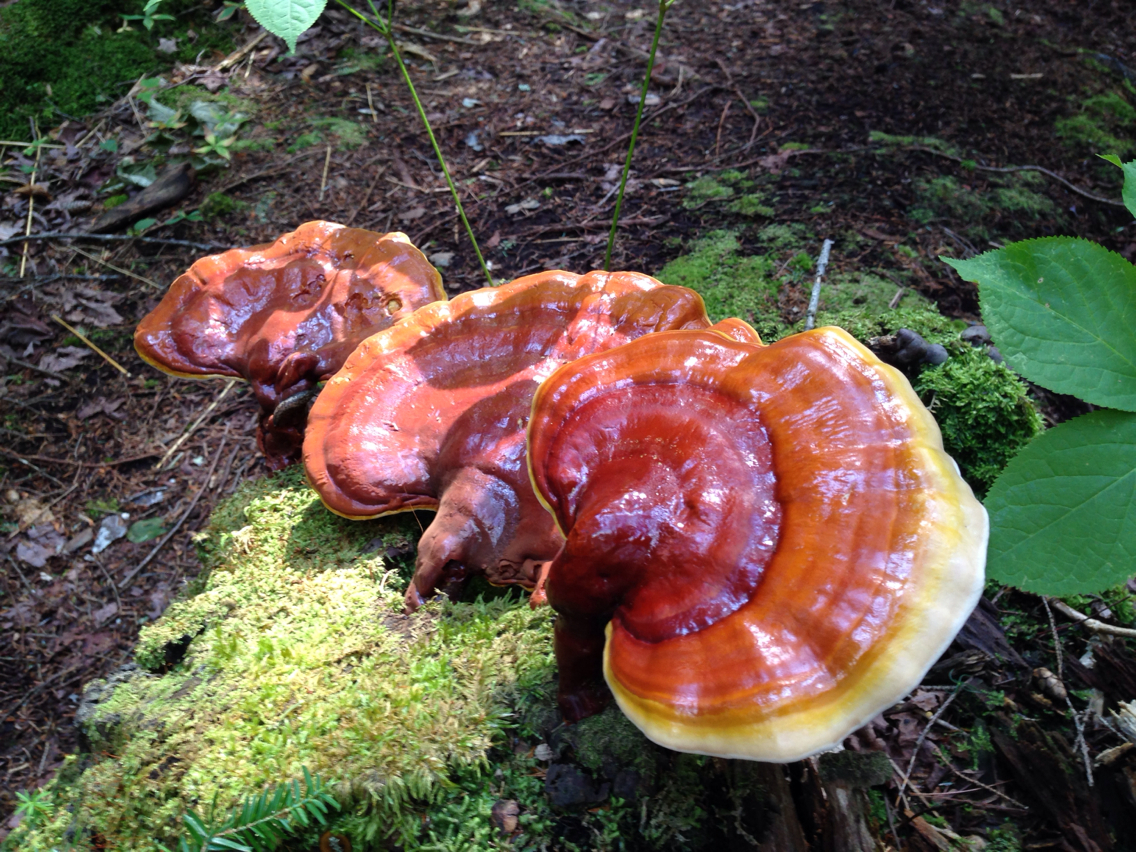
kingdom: Fungi
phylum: Basidiomycota
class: Agaricomycetes
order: Polyporales
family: Polyporaceae
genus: Ganoderma
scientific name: Ganoderma tsugae
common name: Hemlock varnish shelf
